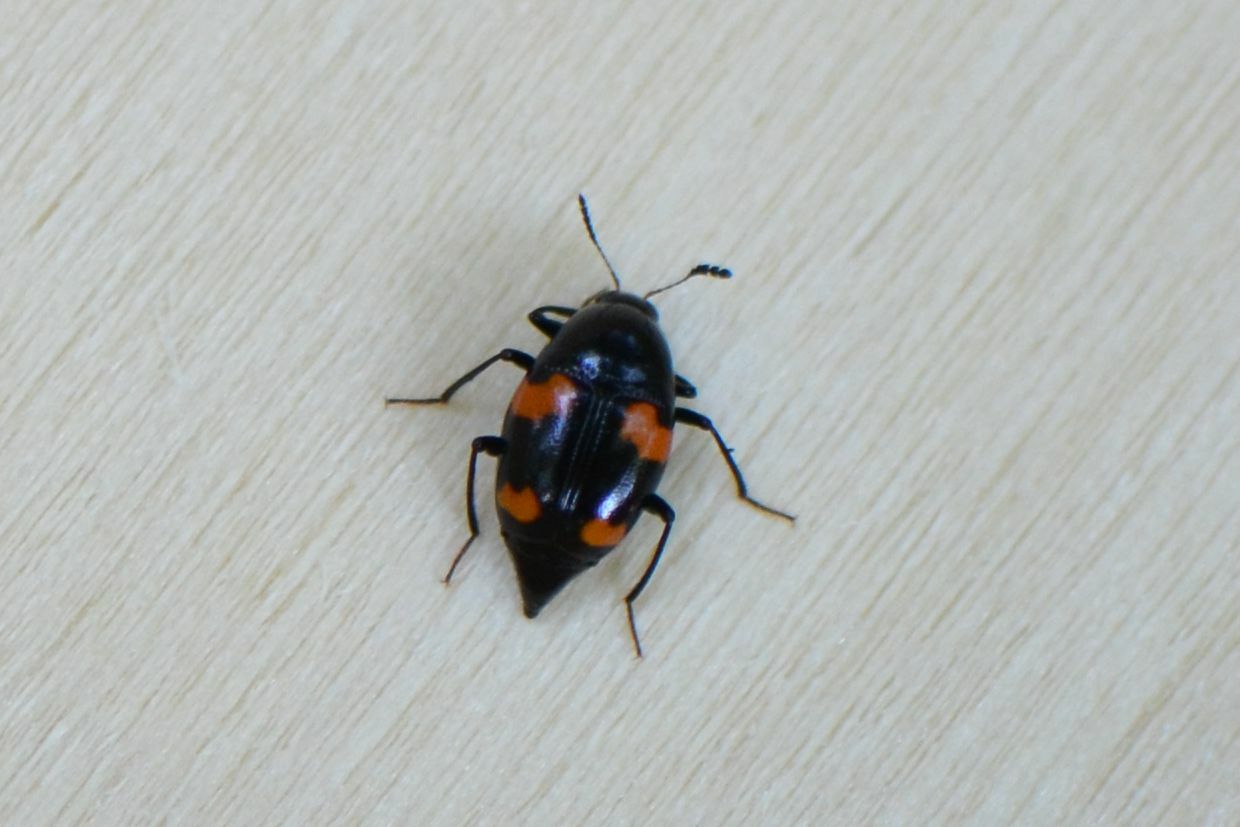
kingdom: Animalia
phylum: Arthropoda
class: Insecta
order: Coleoptera
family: Staphylinidae
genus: Scaphidium
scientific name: Scaphidium quadrimaculatum
